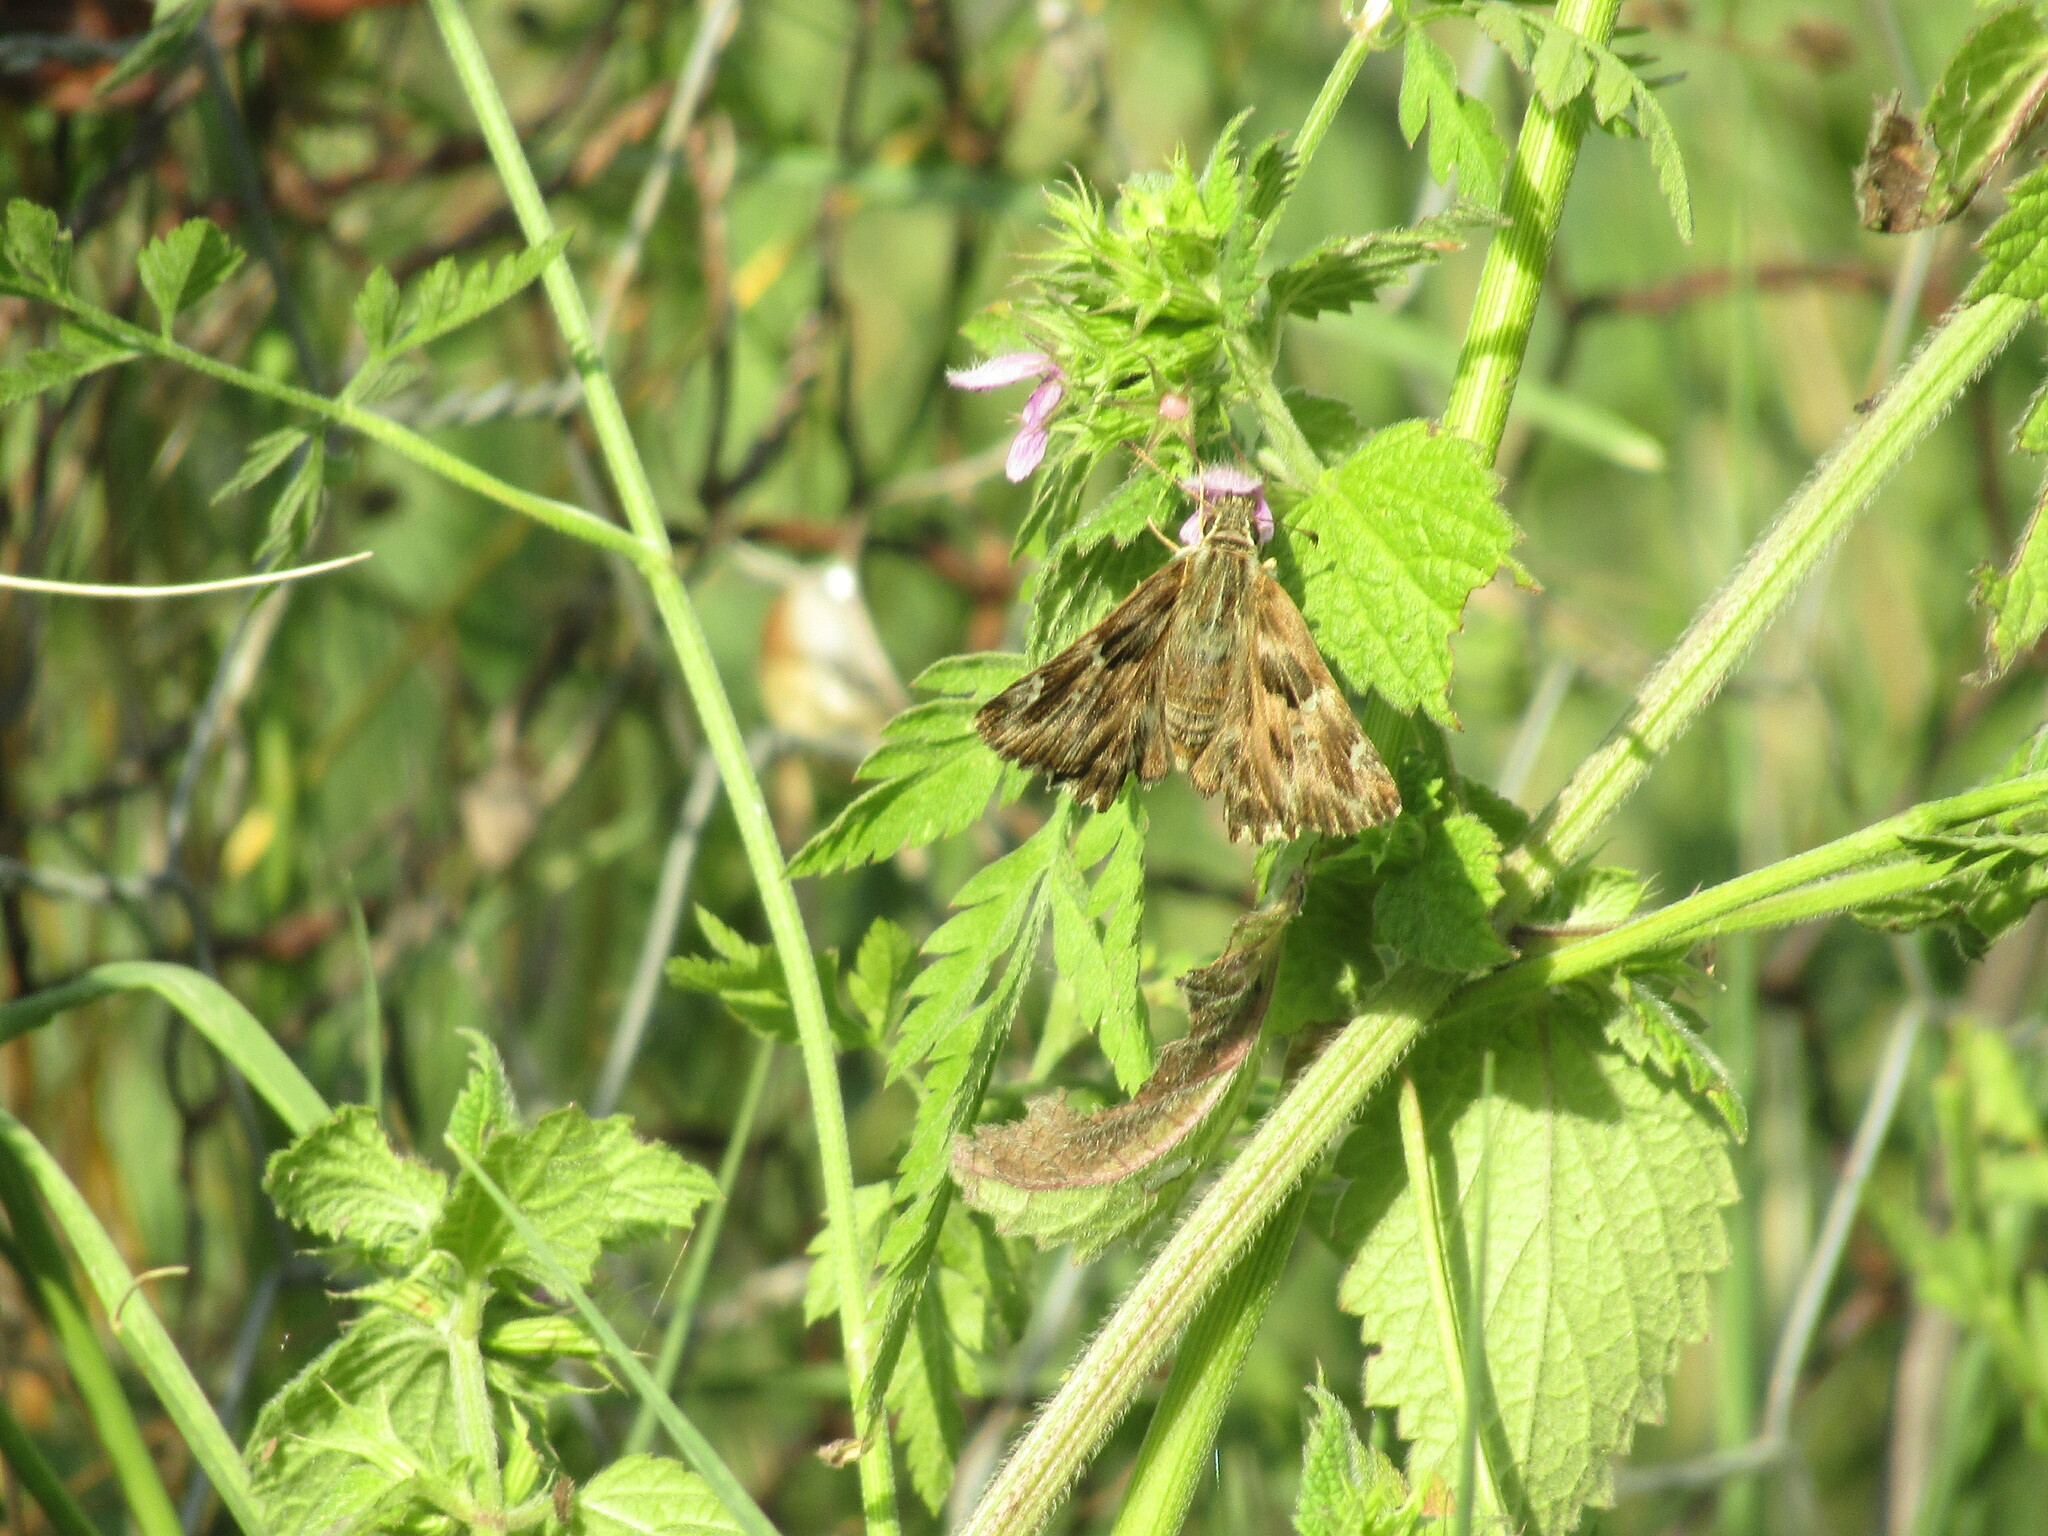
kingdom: Animalia
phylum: Arthropoda
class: Insecta
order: Lepidoptera
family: Hesperiidae
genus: Carcharodus
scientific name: Carcharodus alceae
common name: Mallow skipper
